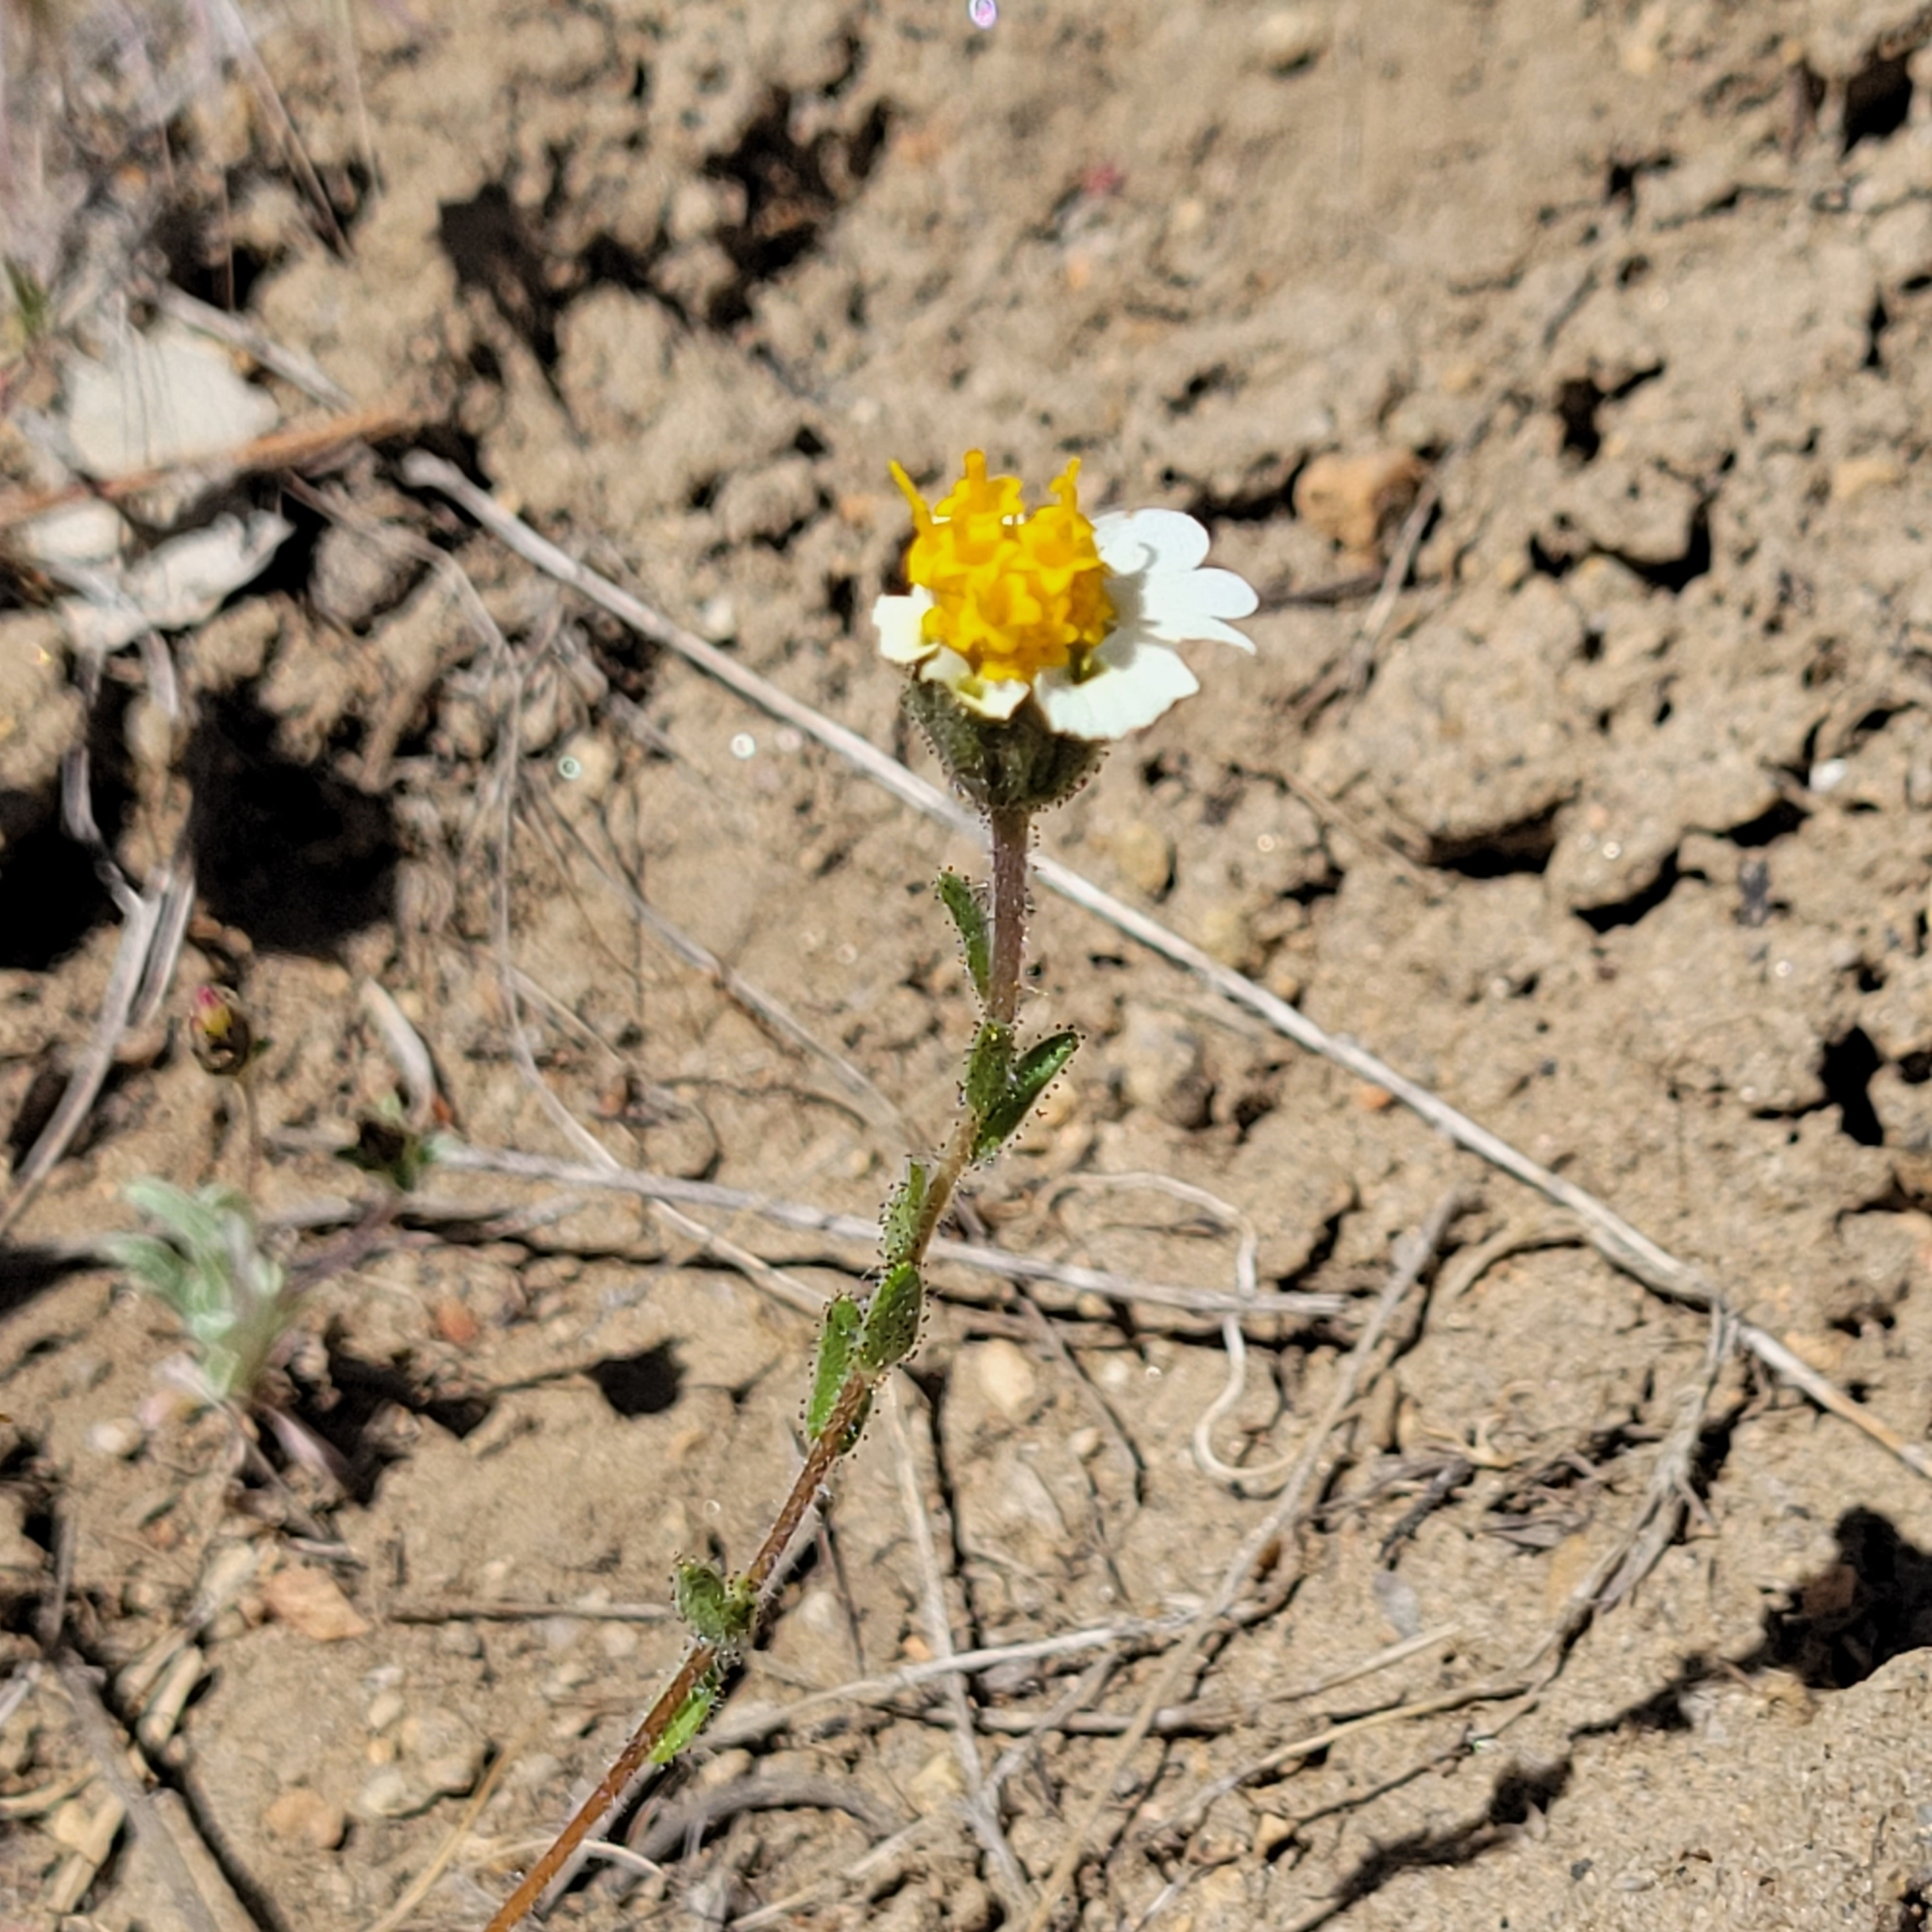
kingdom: Plantae
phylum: Tracheophyta
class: Magnoliopsida
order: Asterales
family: Asteraceae
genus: Layia
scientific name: Layia glandulosa
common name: White layia
